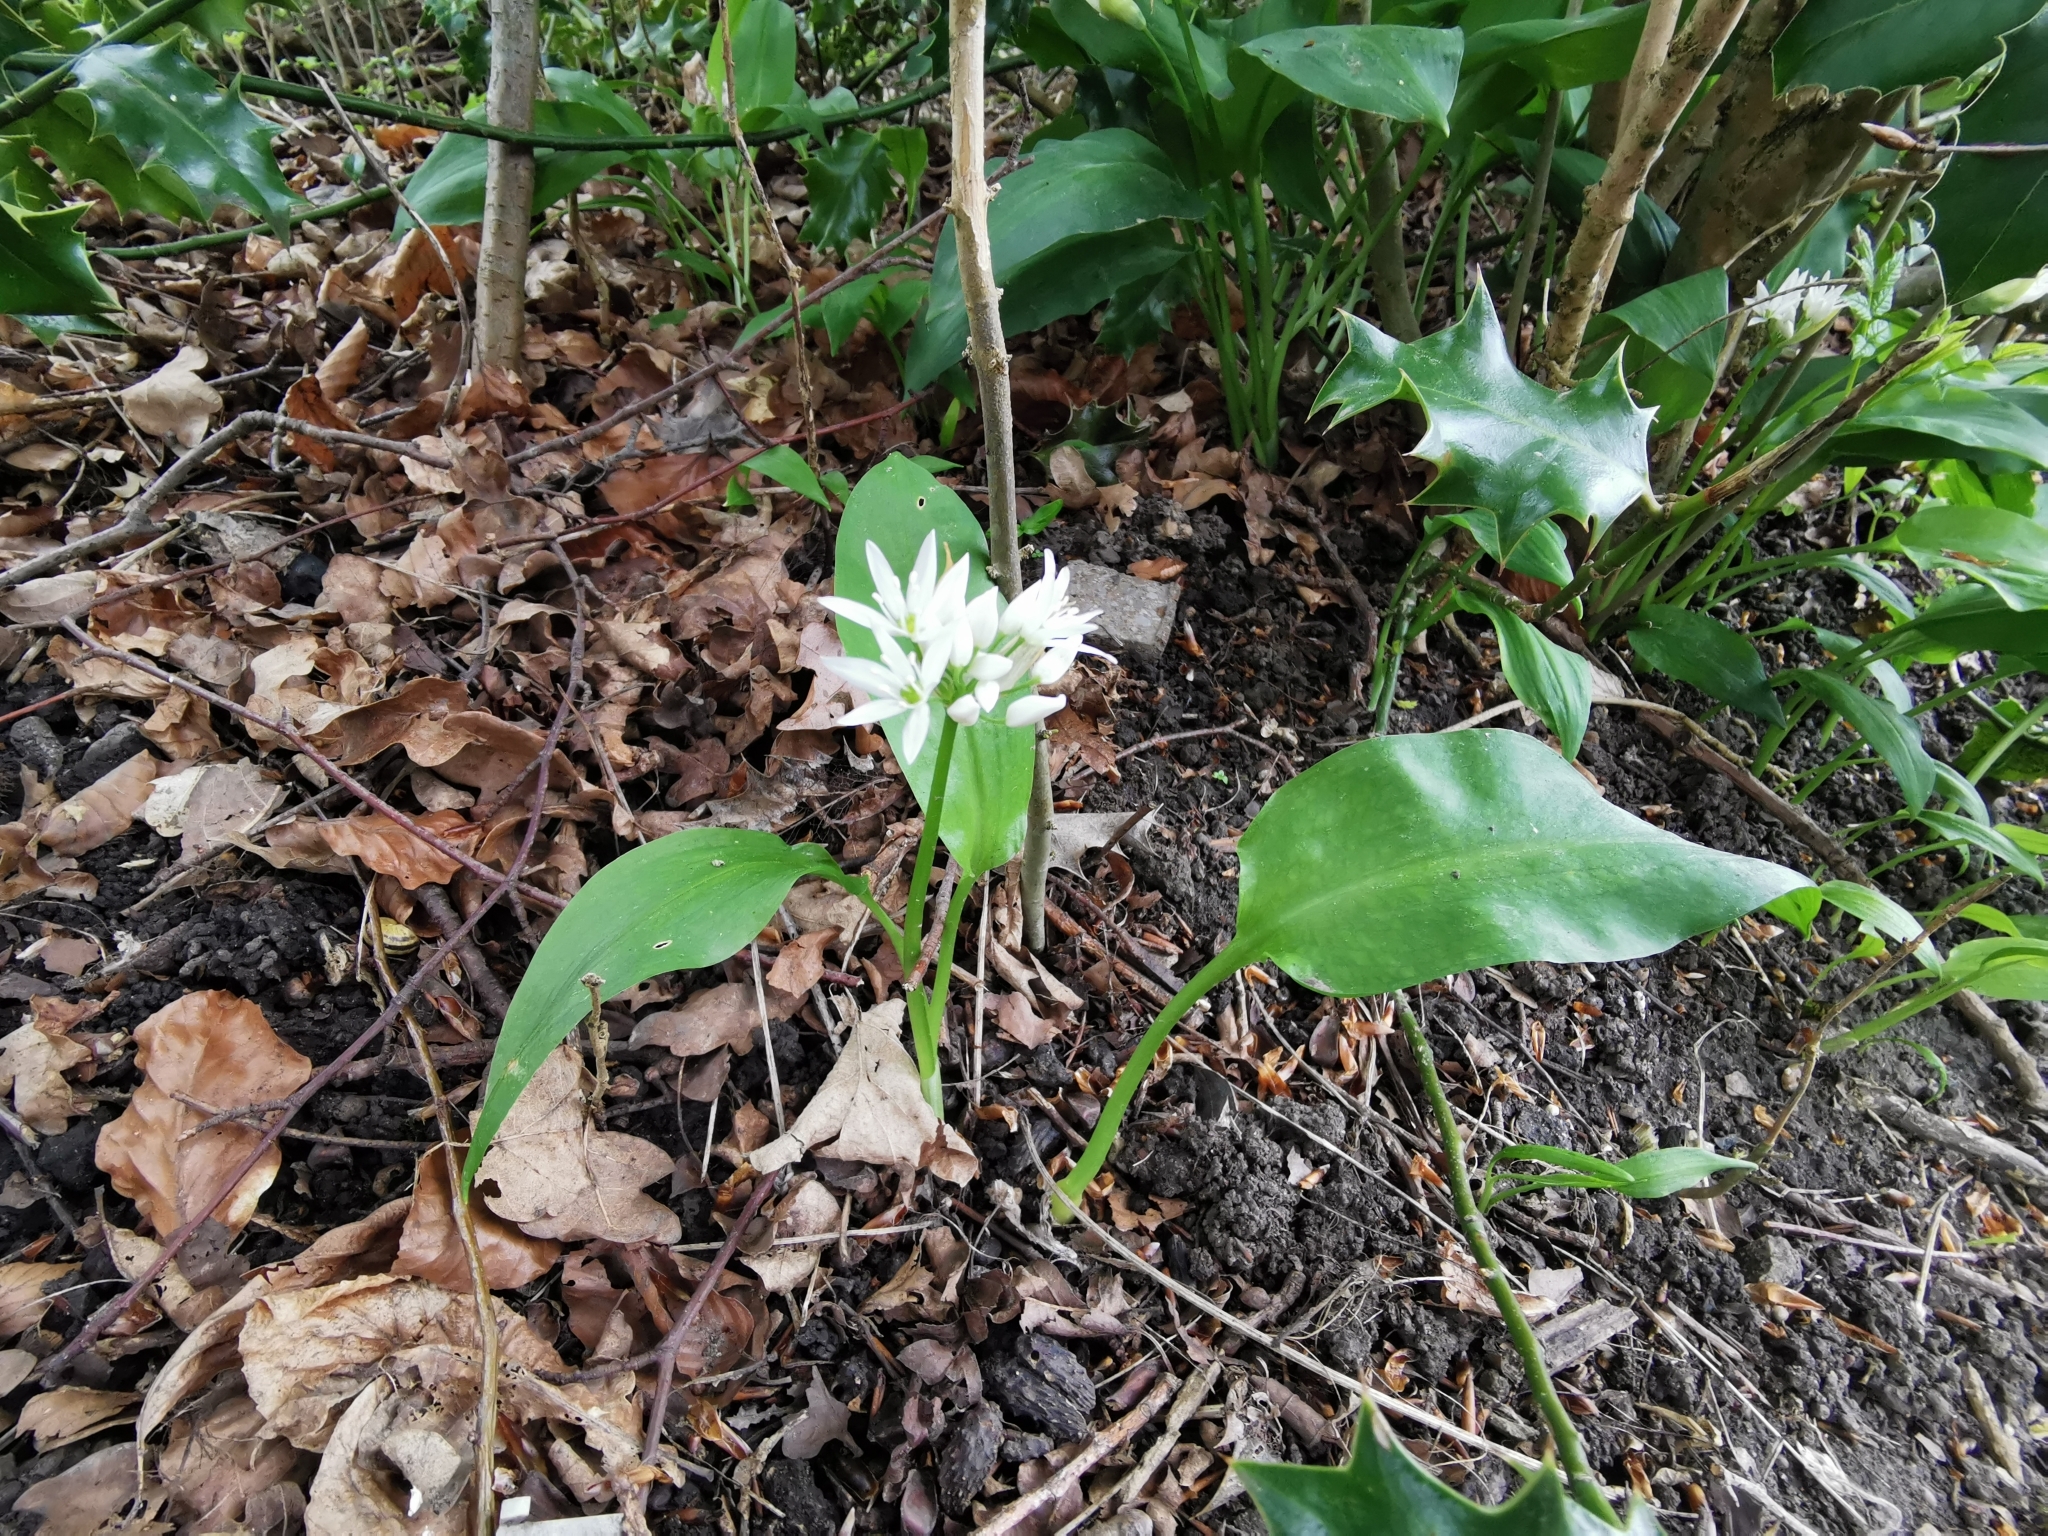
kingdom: Plantae
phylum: Tracheophyta
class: Liliopsida
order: Asparagales
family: Amaryllidaceae
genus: Allium
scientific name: Allium ursinum
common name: Ramsons
